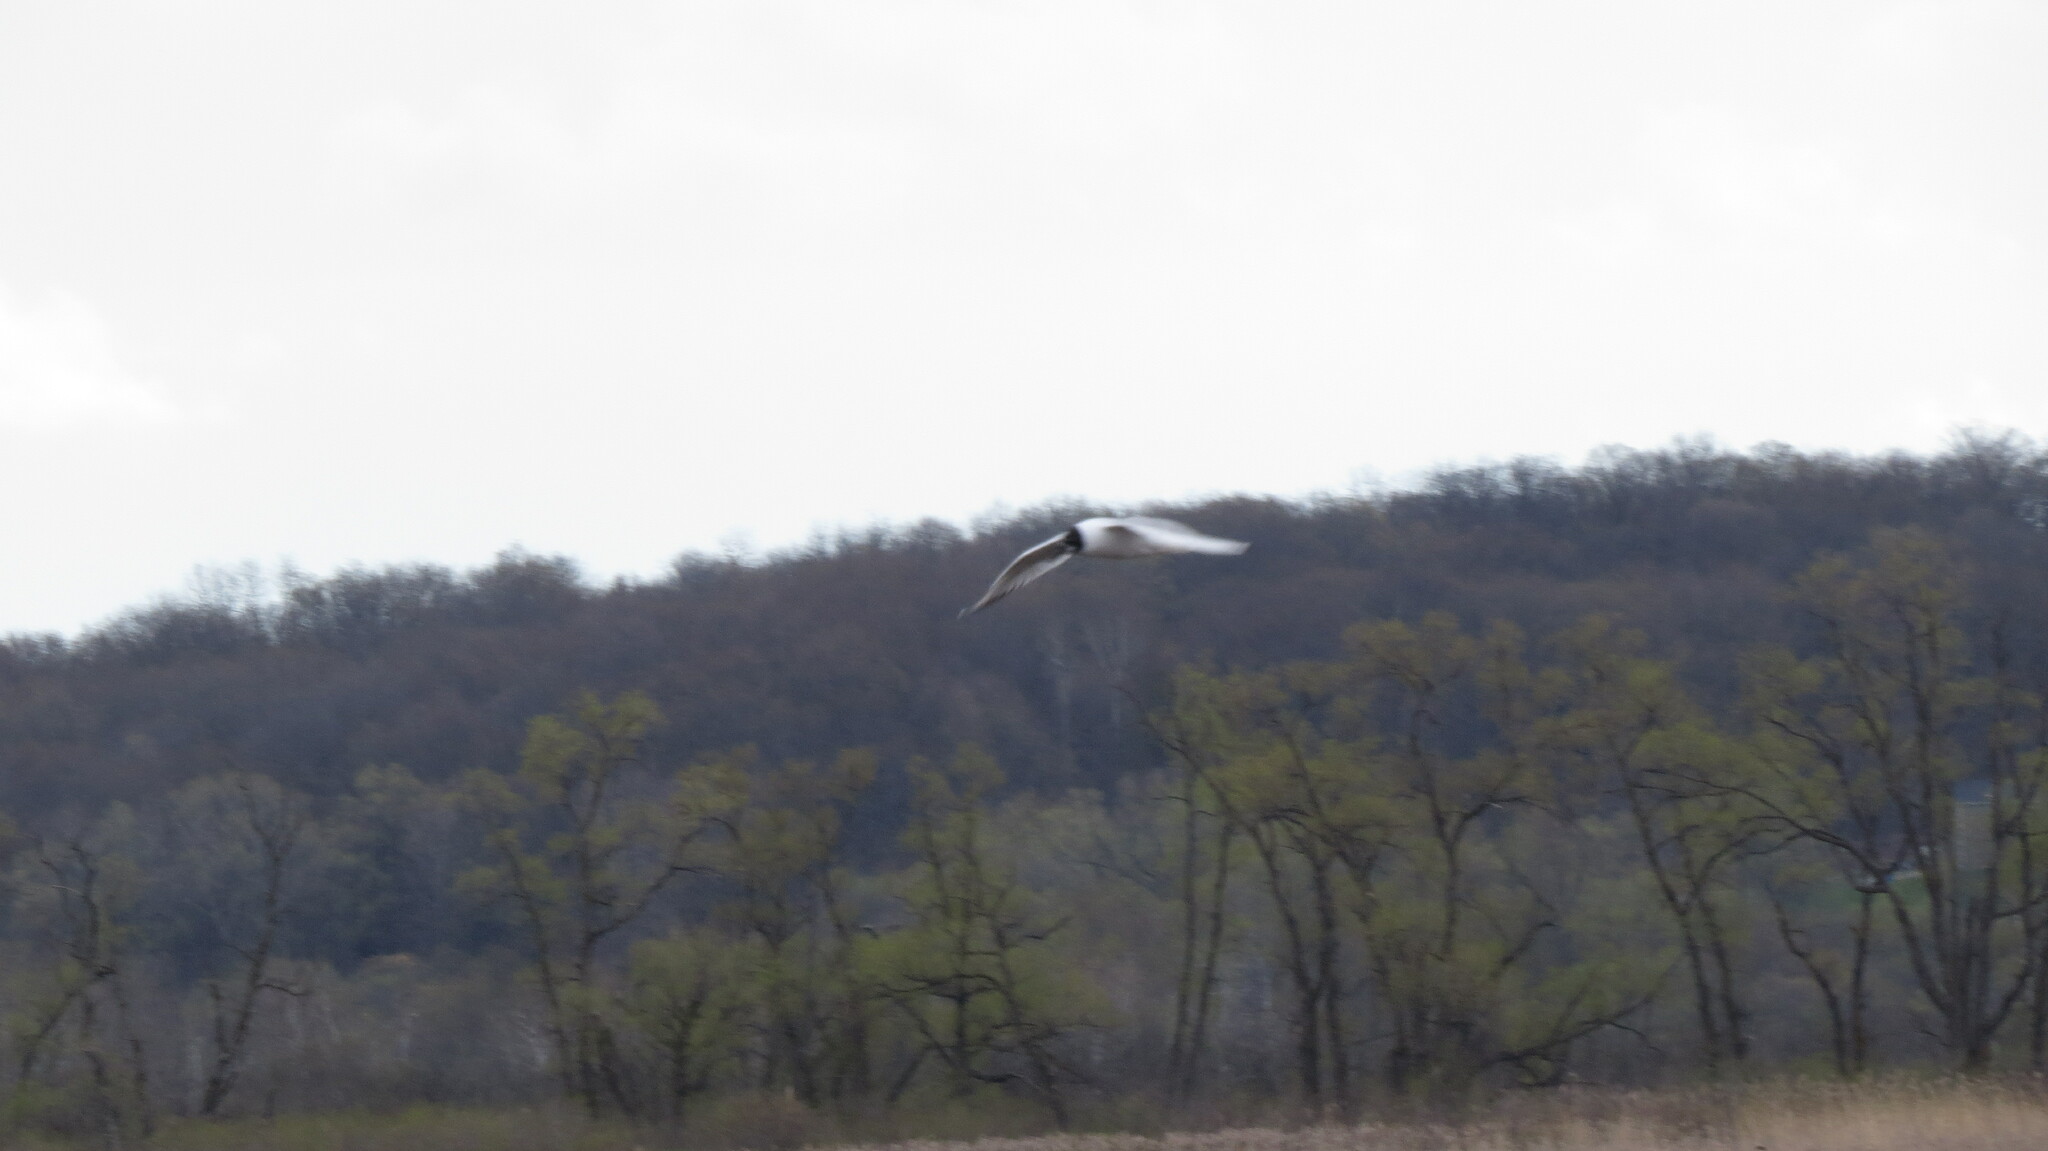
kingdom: Animalia
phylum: Chordata
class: Aves
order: Charadriiformes
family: Laridae
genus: Chroicocephalus
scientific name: Chroicocephalus philadelphia
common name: Bonaparte's gull
